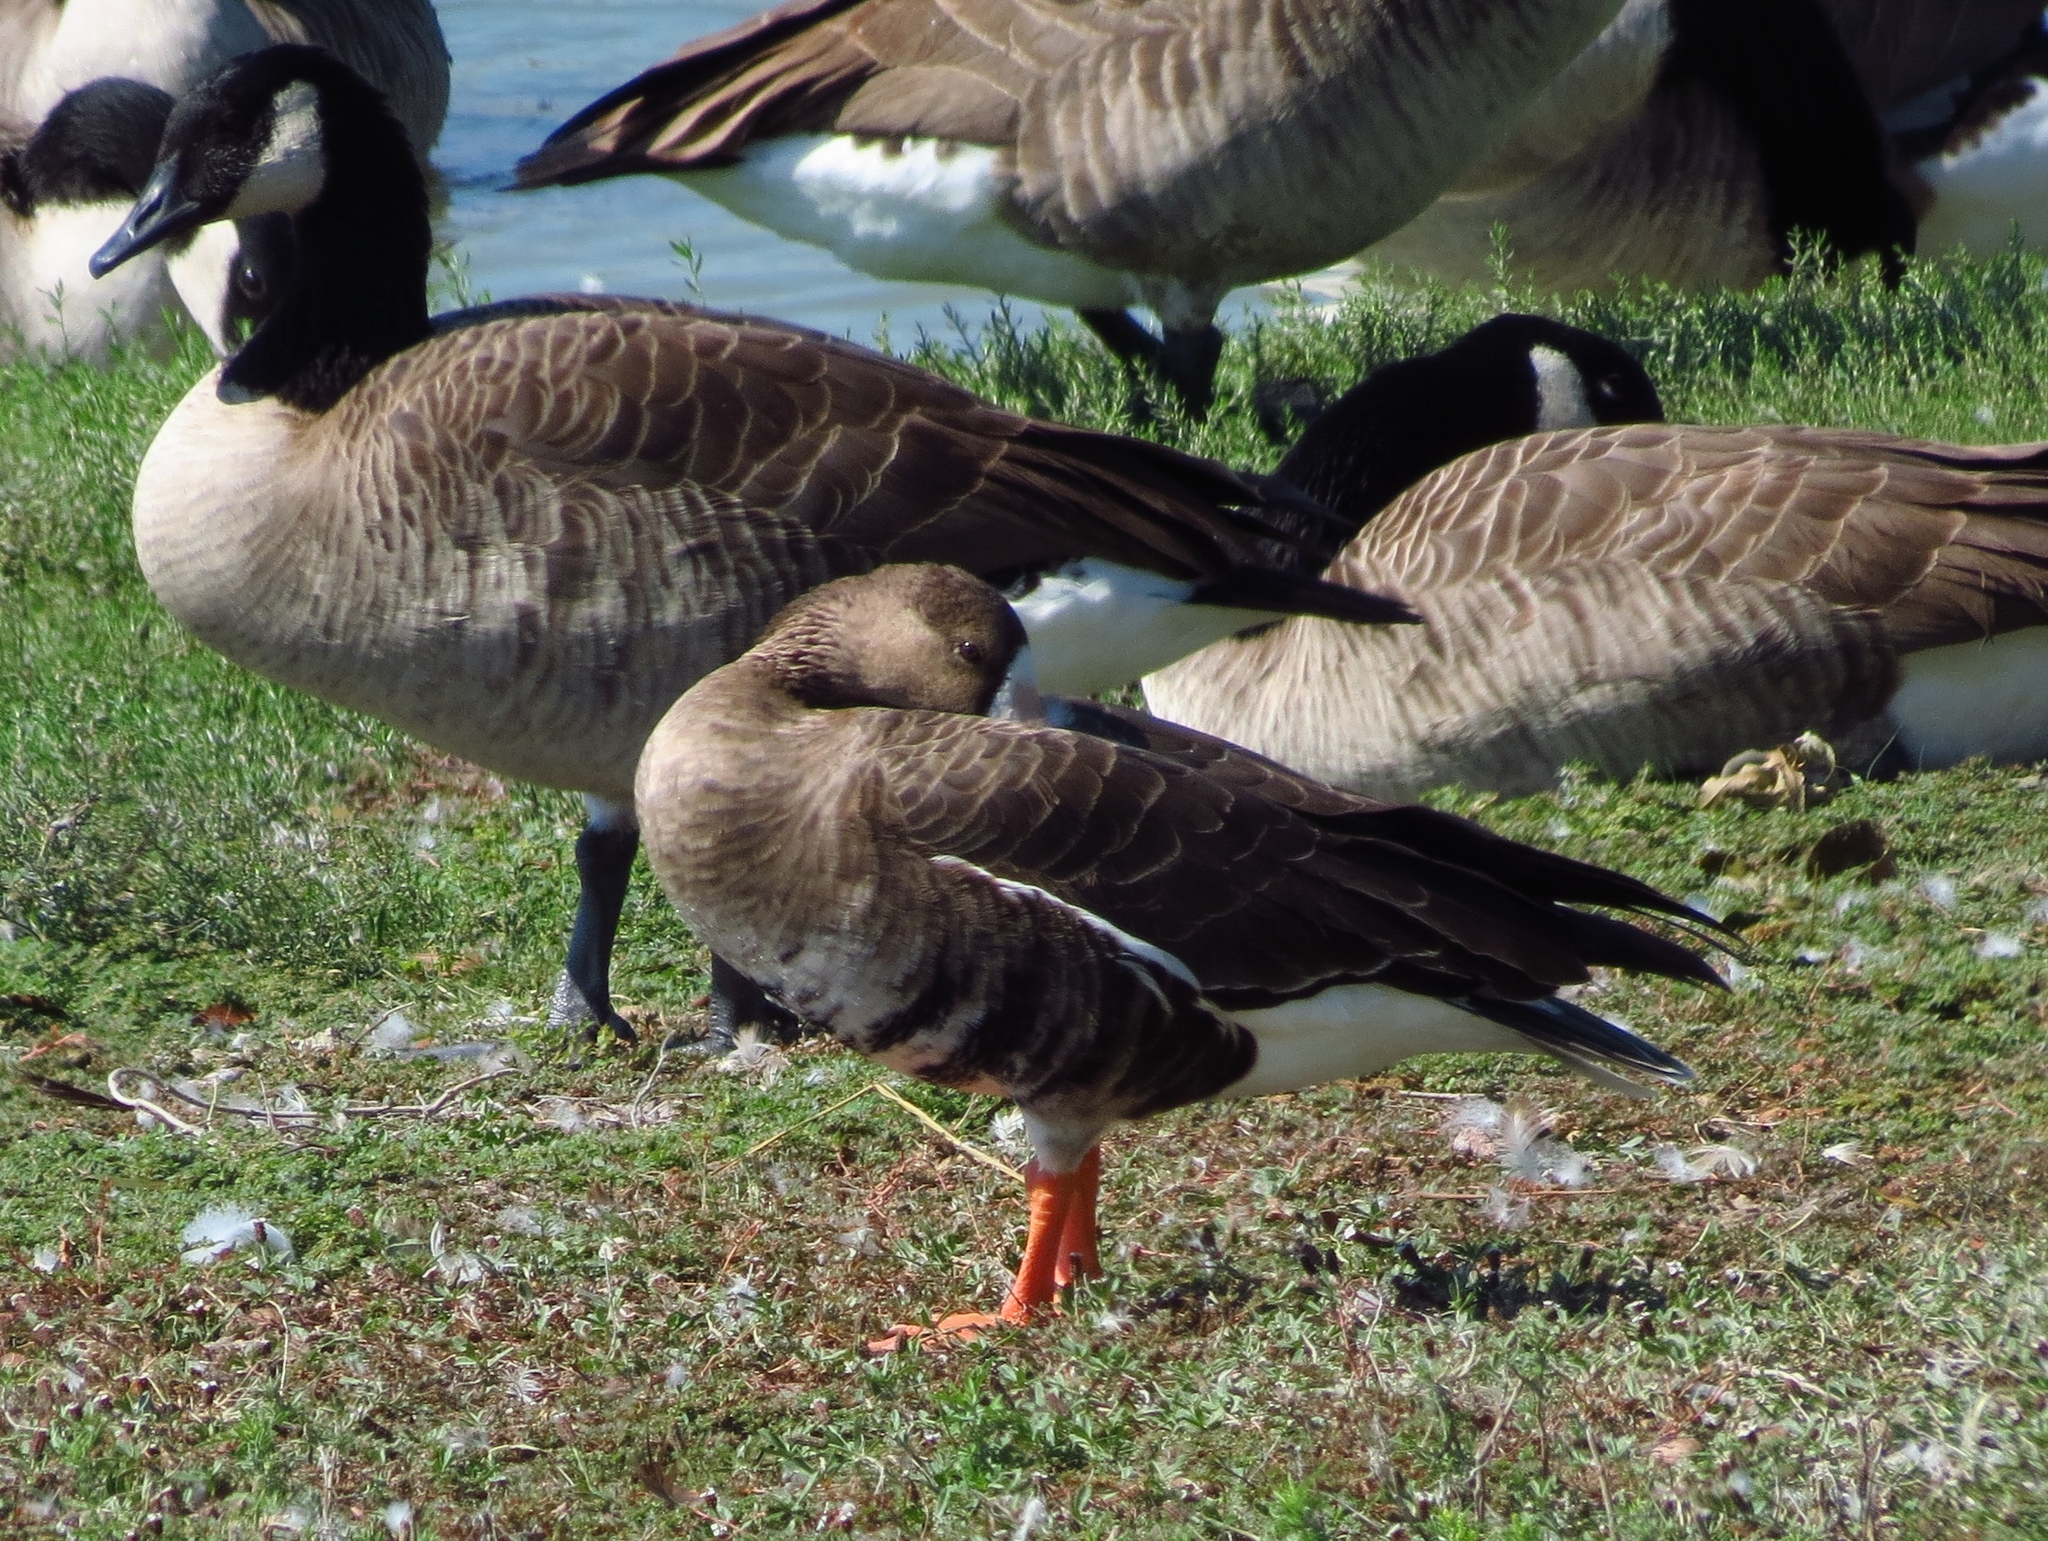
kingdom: Animalia
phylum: Chordata
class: Aves
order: Anseriformes
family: Anatidae
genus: Anser
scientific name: Anser albifrons
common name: Greater white-fronted goose
